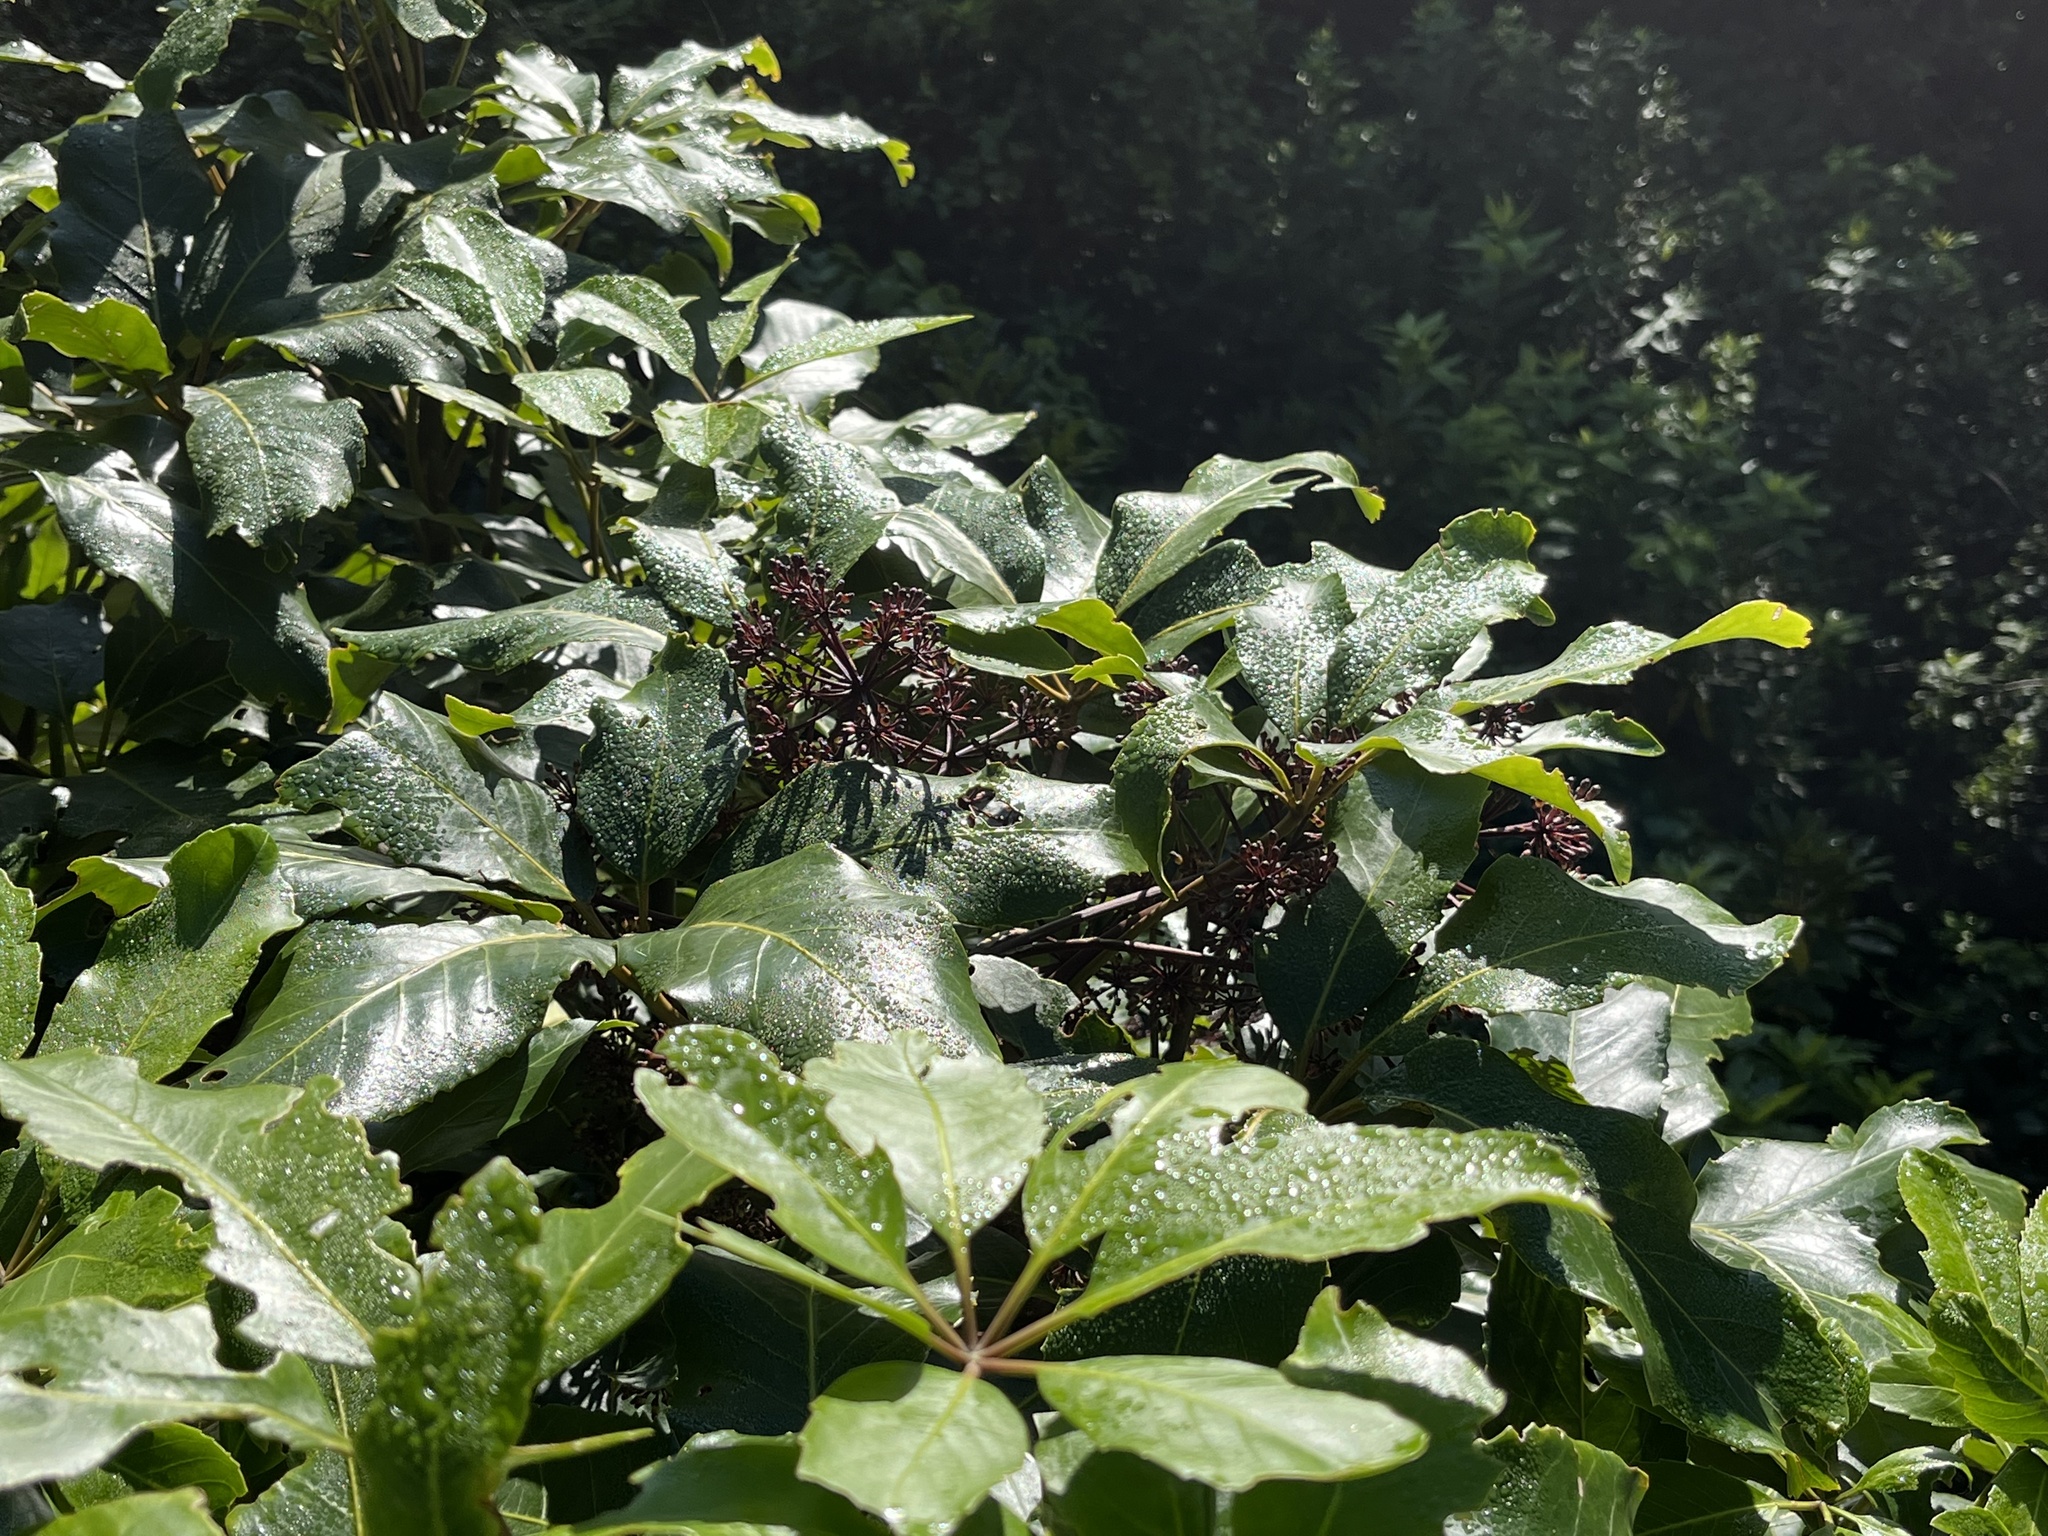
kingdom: Plantae
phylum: Tracheophyta
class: Magnoliopsida
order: Apiales
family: Araliaceae
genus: Neopanax
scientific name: Neopanax arboreus
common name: Five-fingers
